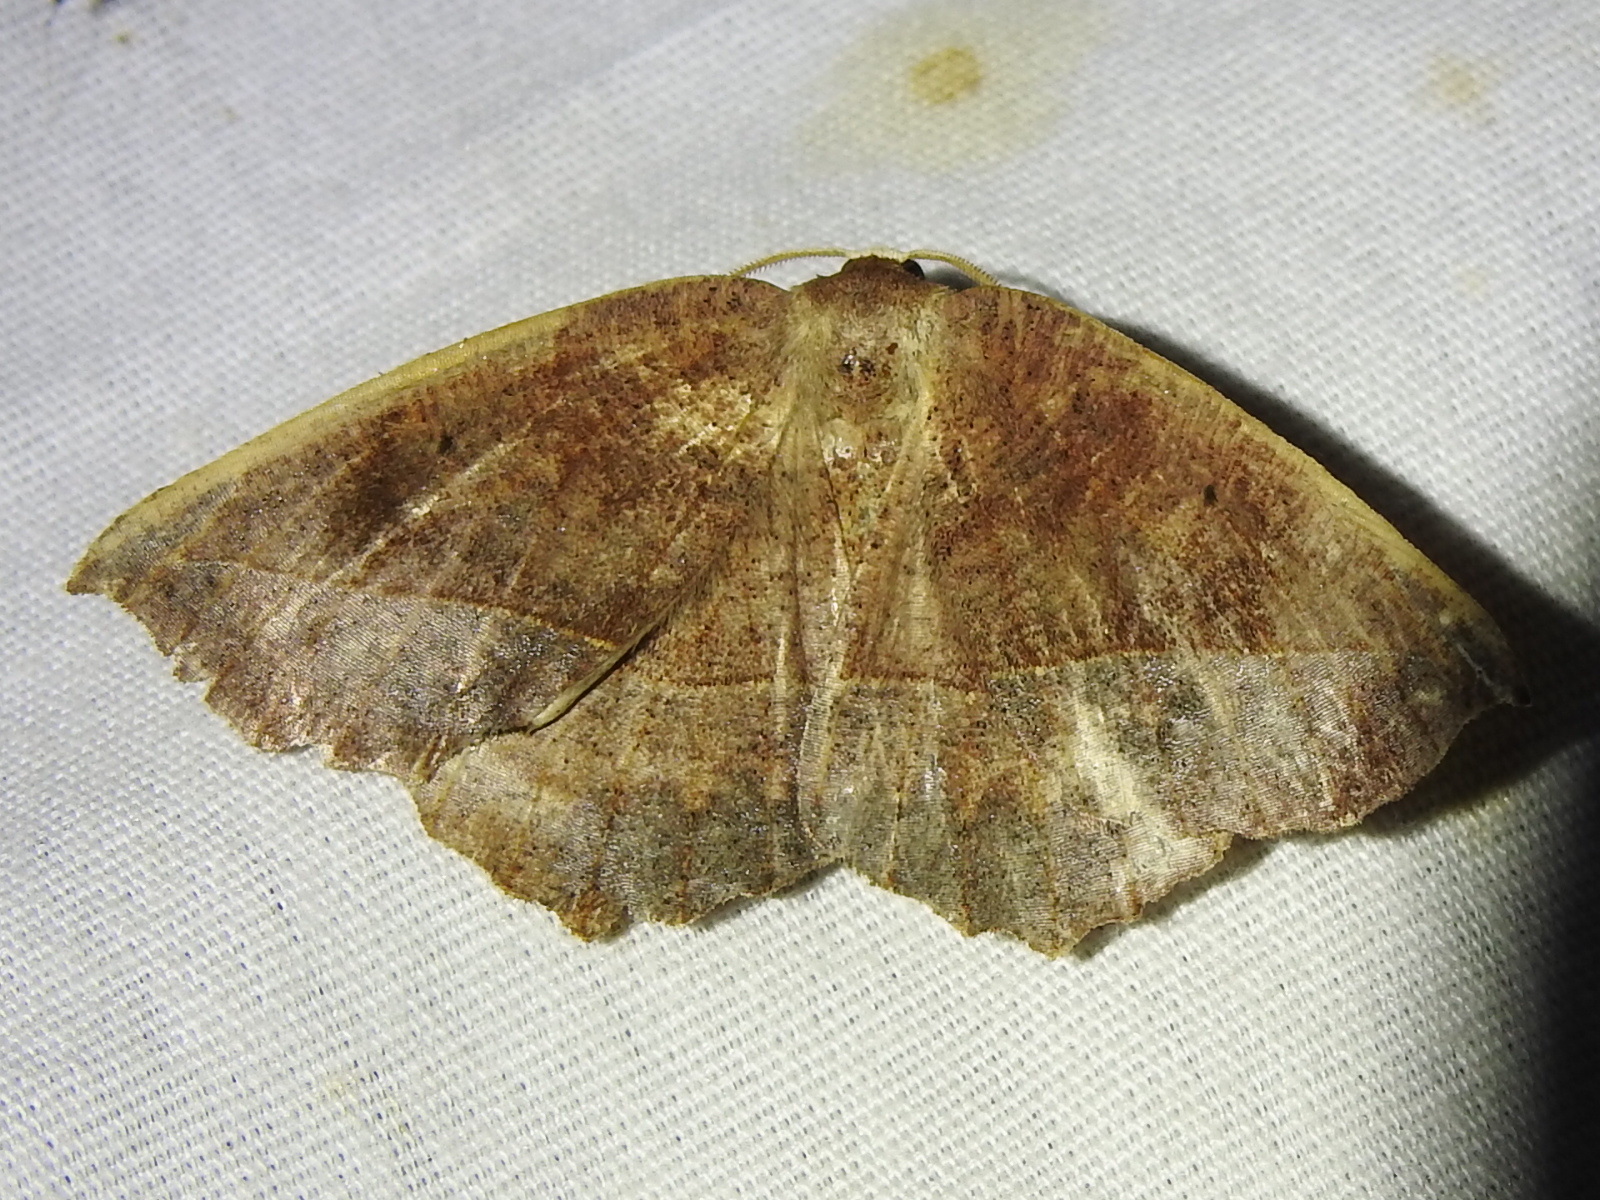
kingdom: Animalia
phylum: Arthropoda
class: Insecta
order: Lepidoptera
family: Geometridae
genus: Eutrapela
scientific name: Eutrapela clemataria
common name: Curved-toothed geometer
